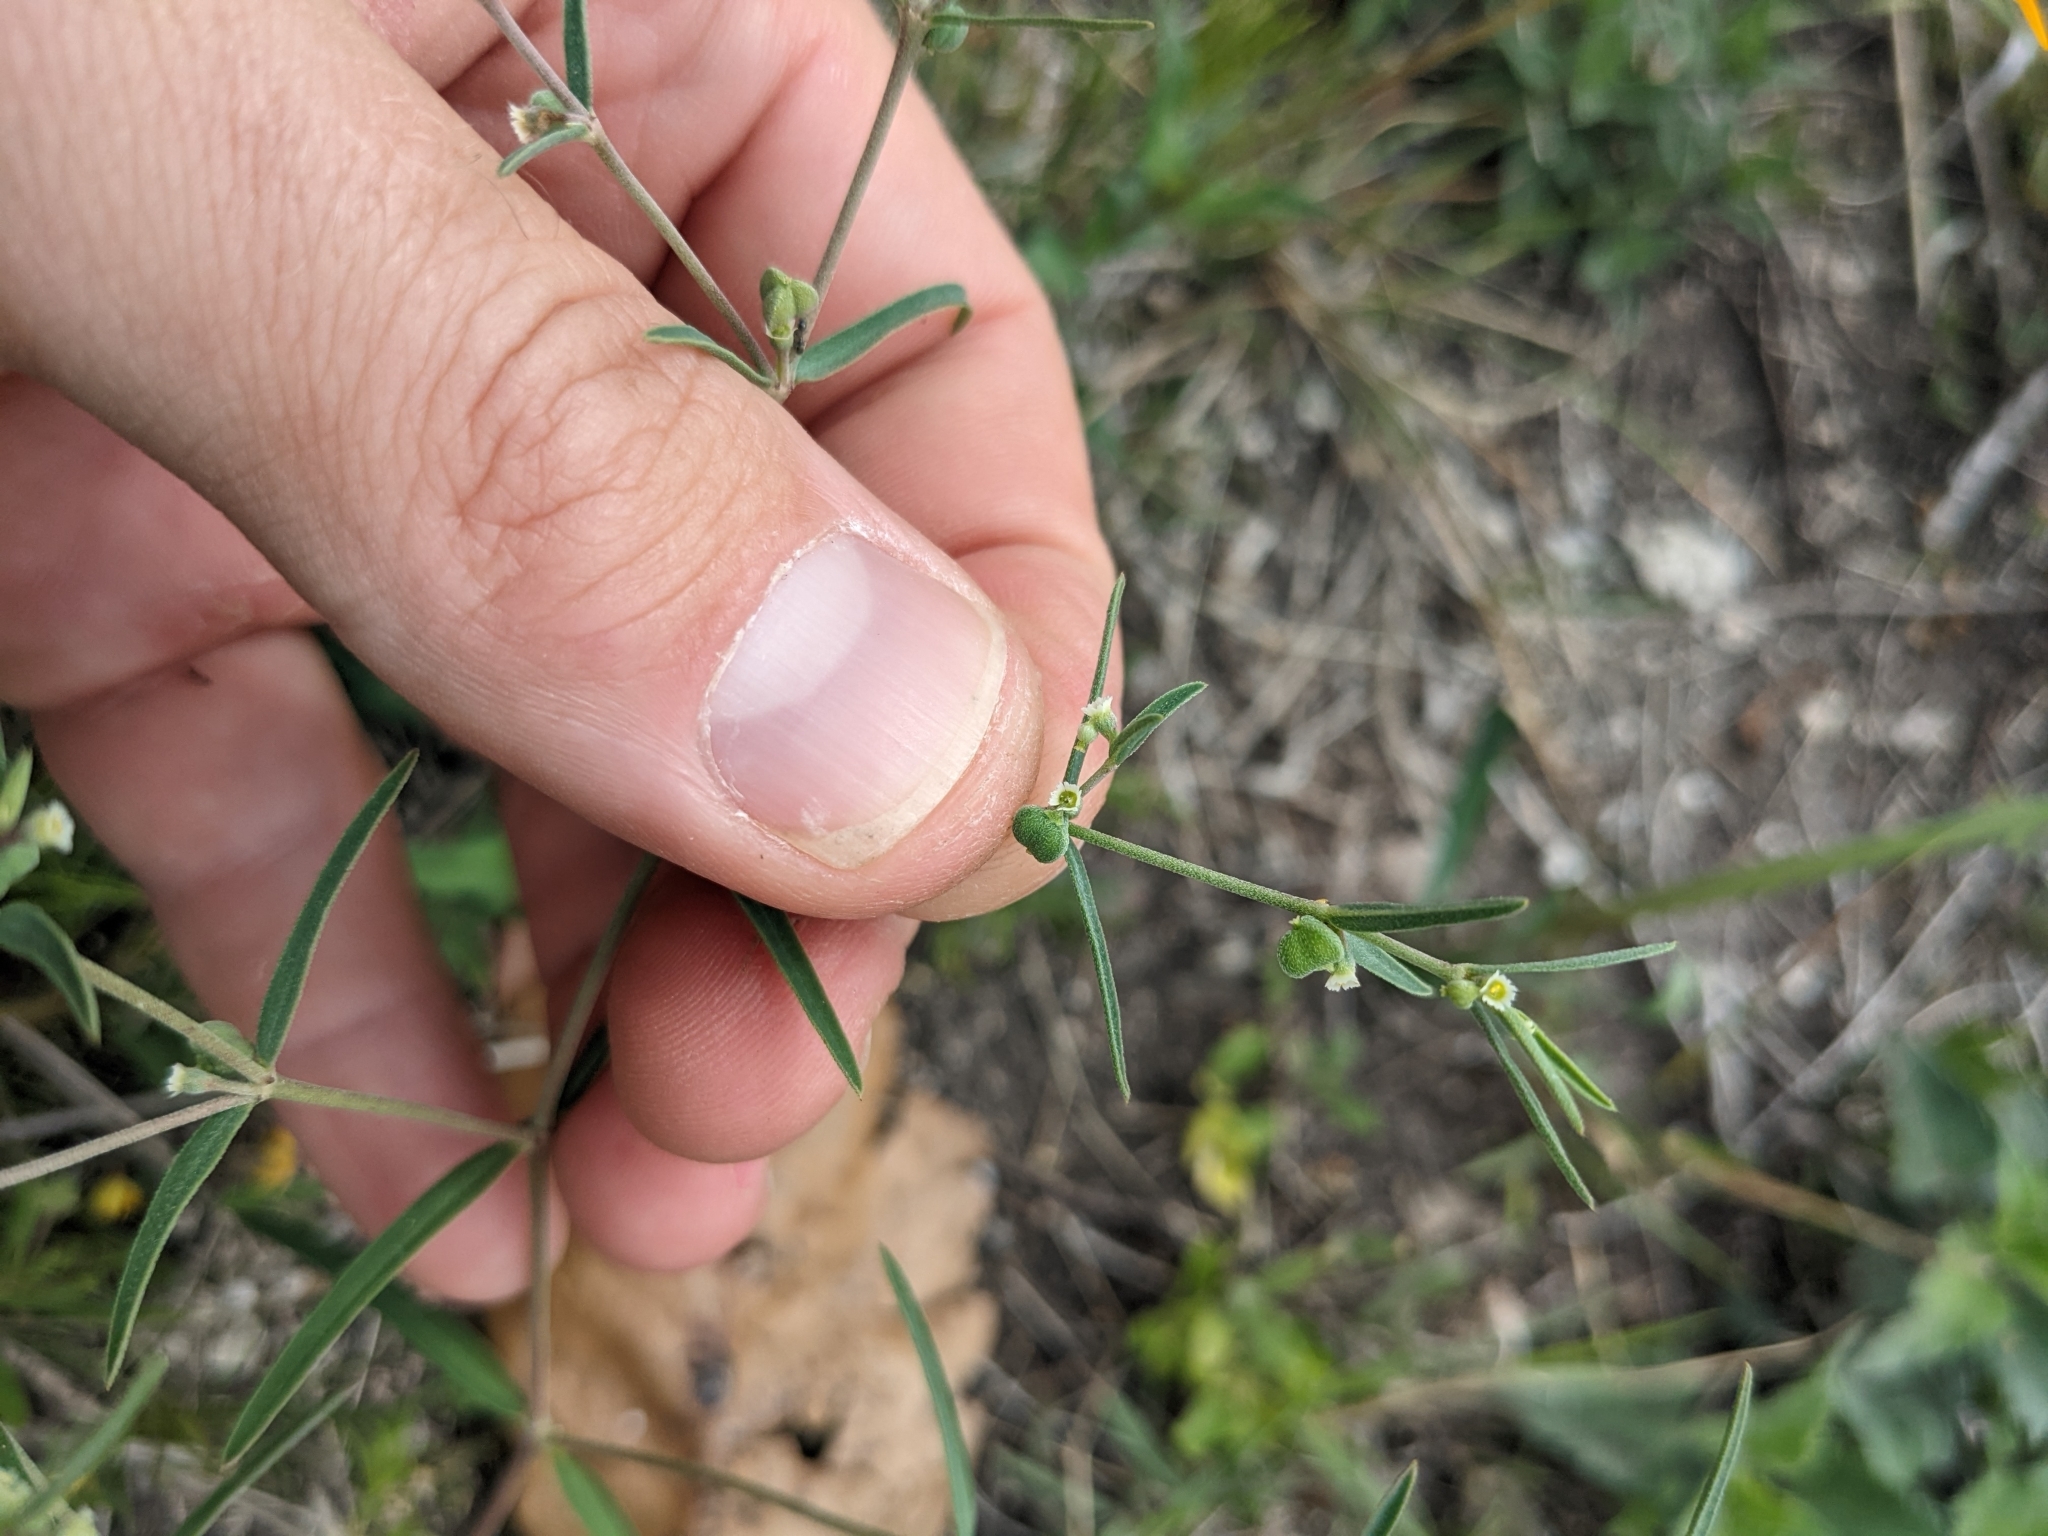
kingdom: Plantae
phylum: Tracheophyta
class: Magnoliopsida
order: Malpighiales
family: Euphorbiaceae
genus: Euphorbia
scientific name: Euphorbia angusta
